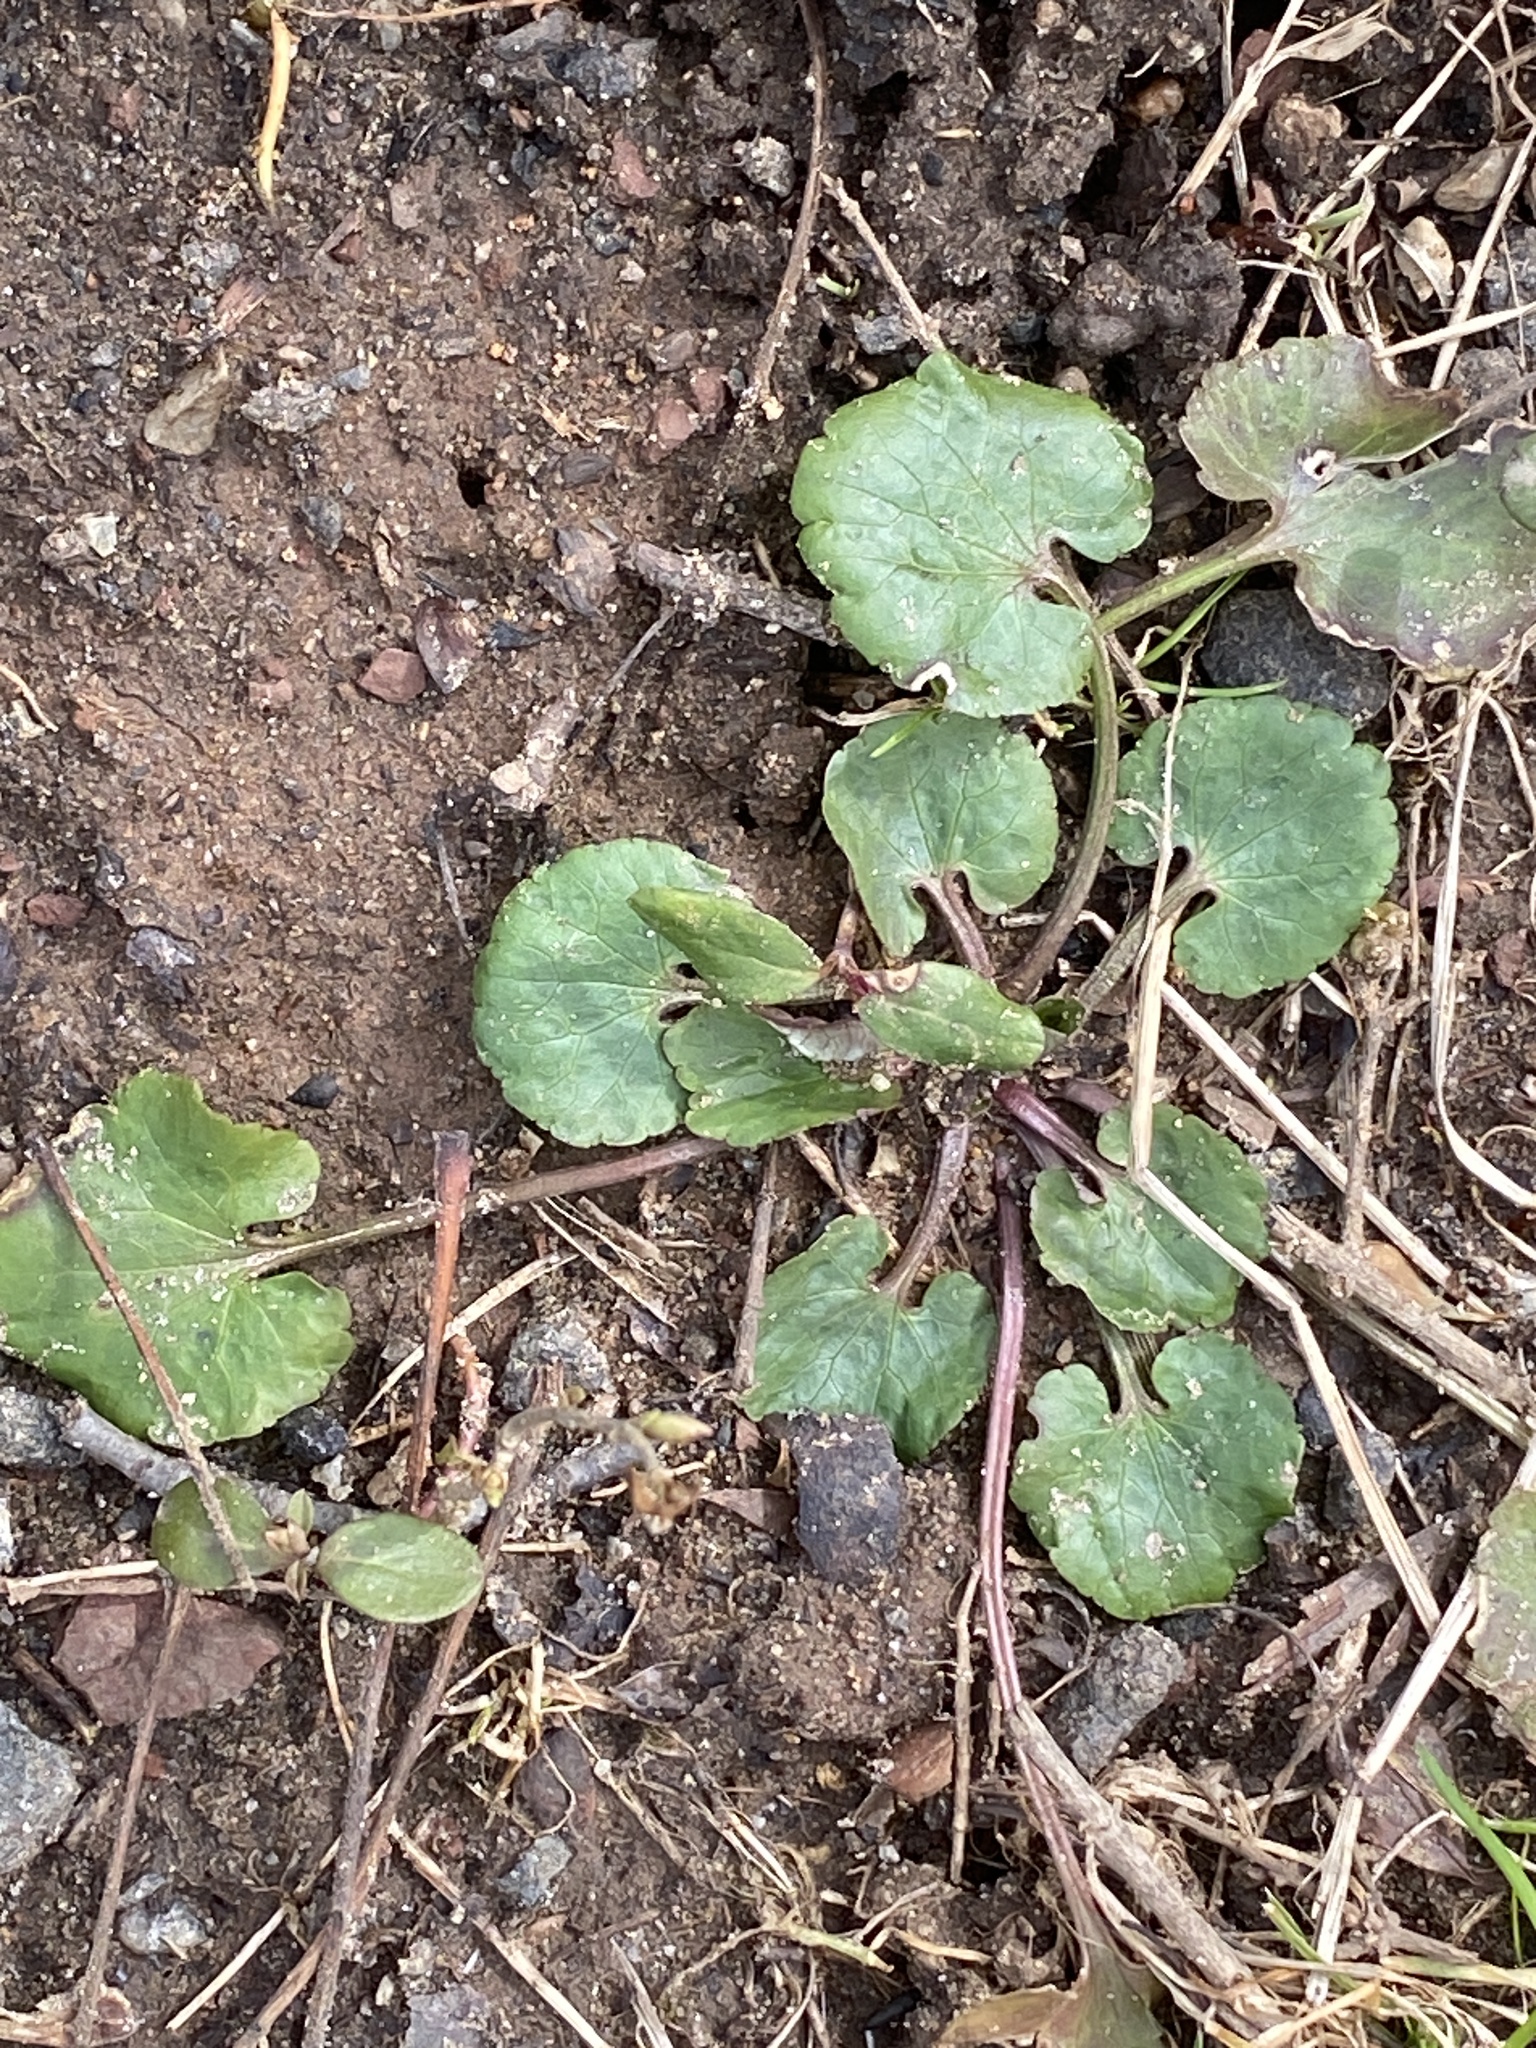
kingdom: Plantae
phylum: Tracheophyta
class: Magnoliopsida
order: Ranunculales
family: Ranunculaceae
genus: Ranunculus
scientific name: Ranunculus abortivus
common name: Early wood buttercup
